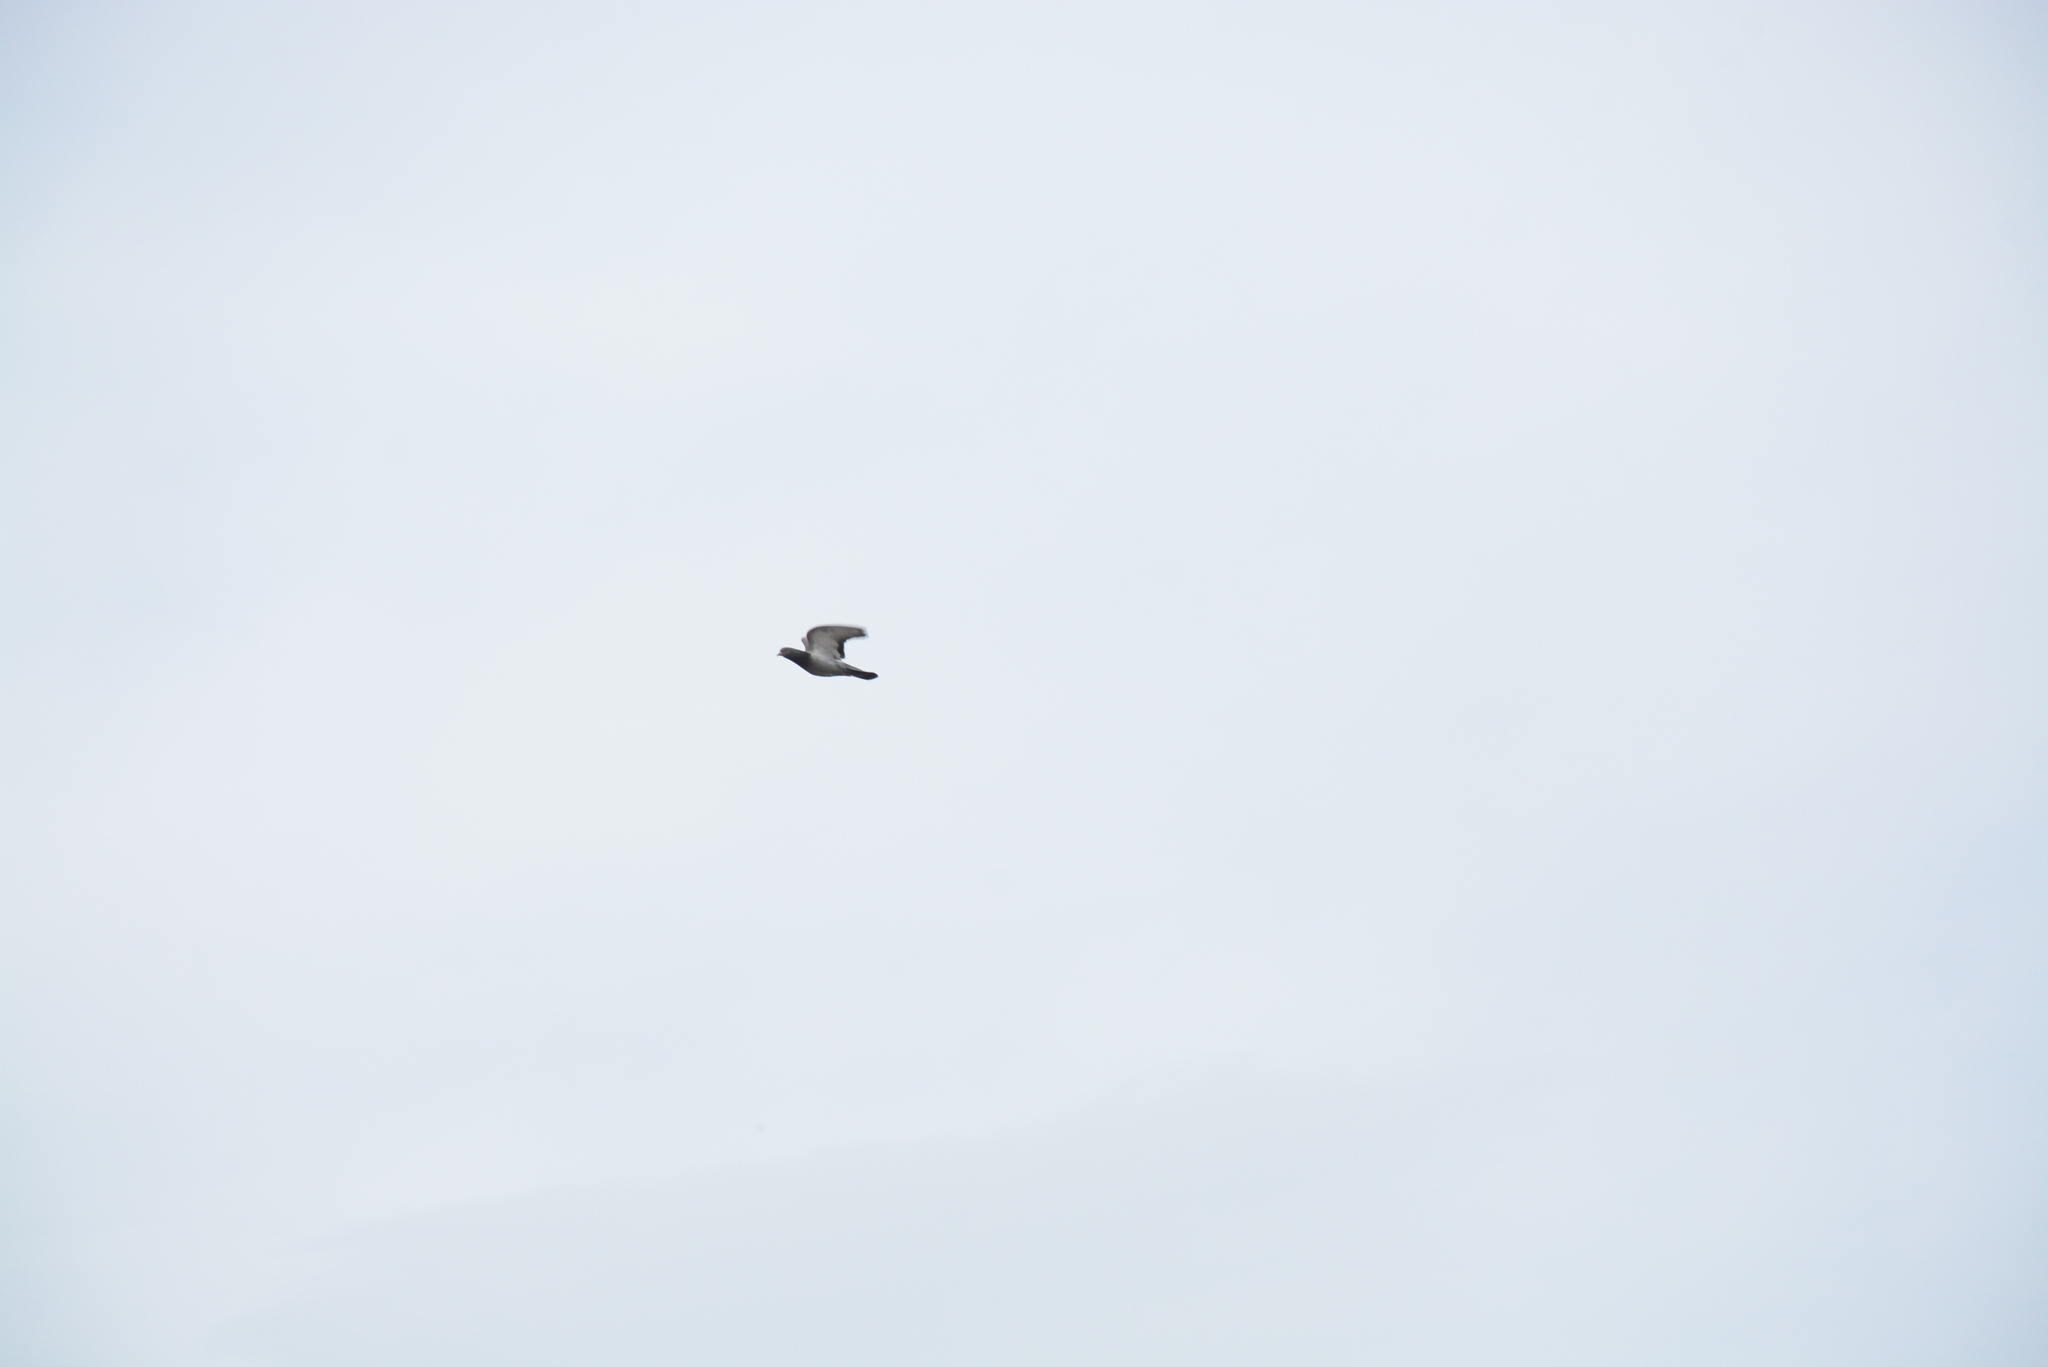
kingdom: Animalia
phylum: Chordata
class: Aves
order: Columbiformes
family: Columbidae
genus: Columba
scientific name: Columba livia
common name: Rock pigeon
